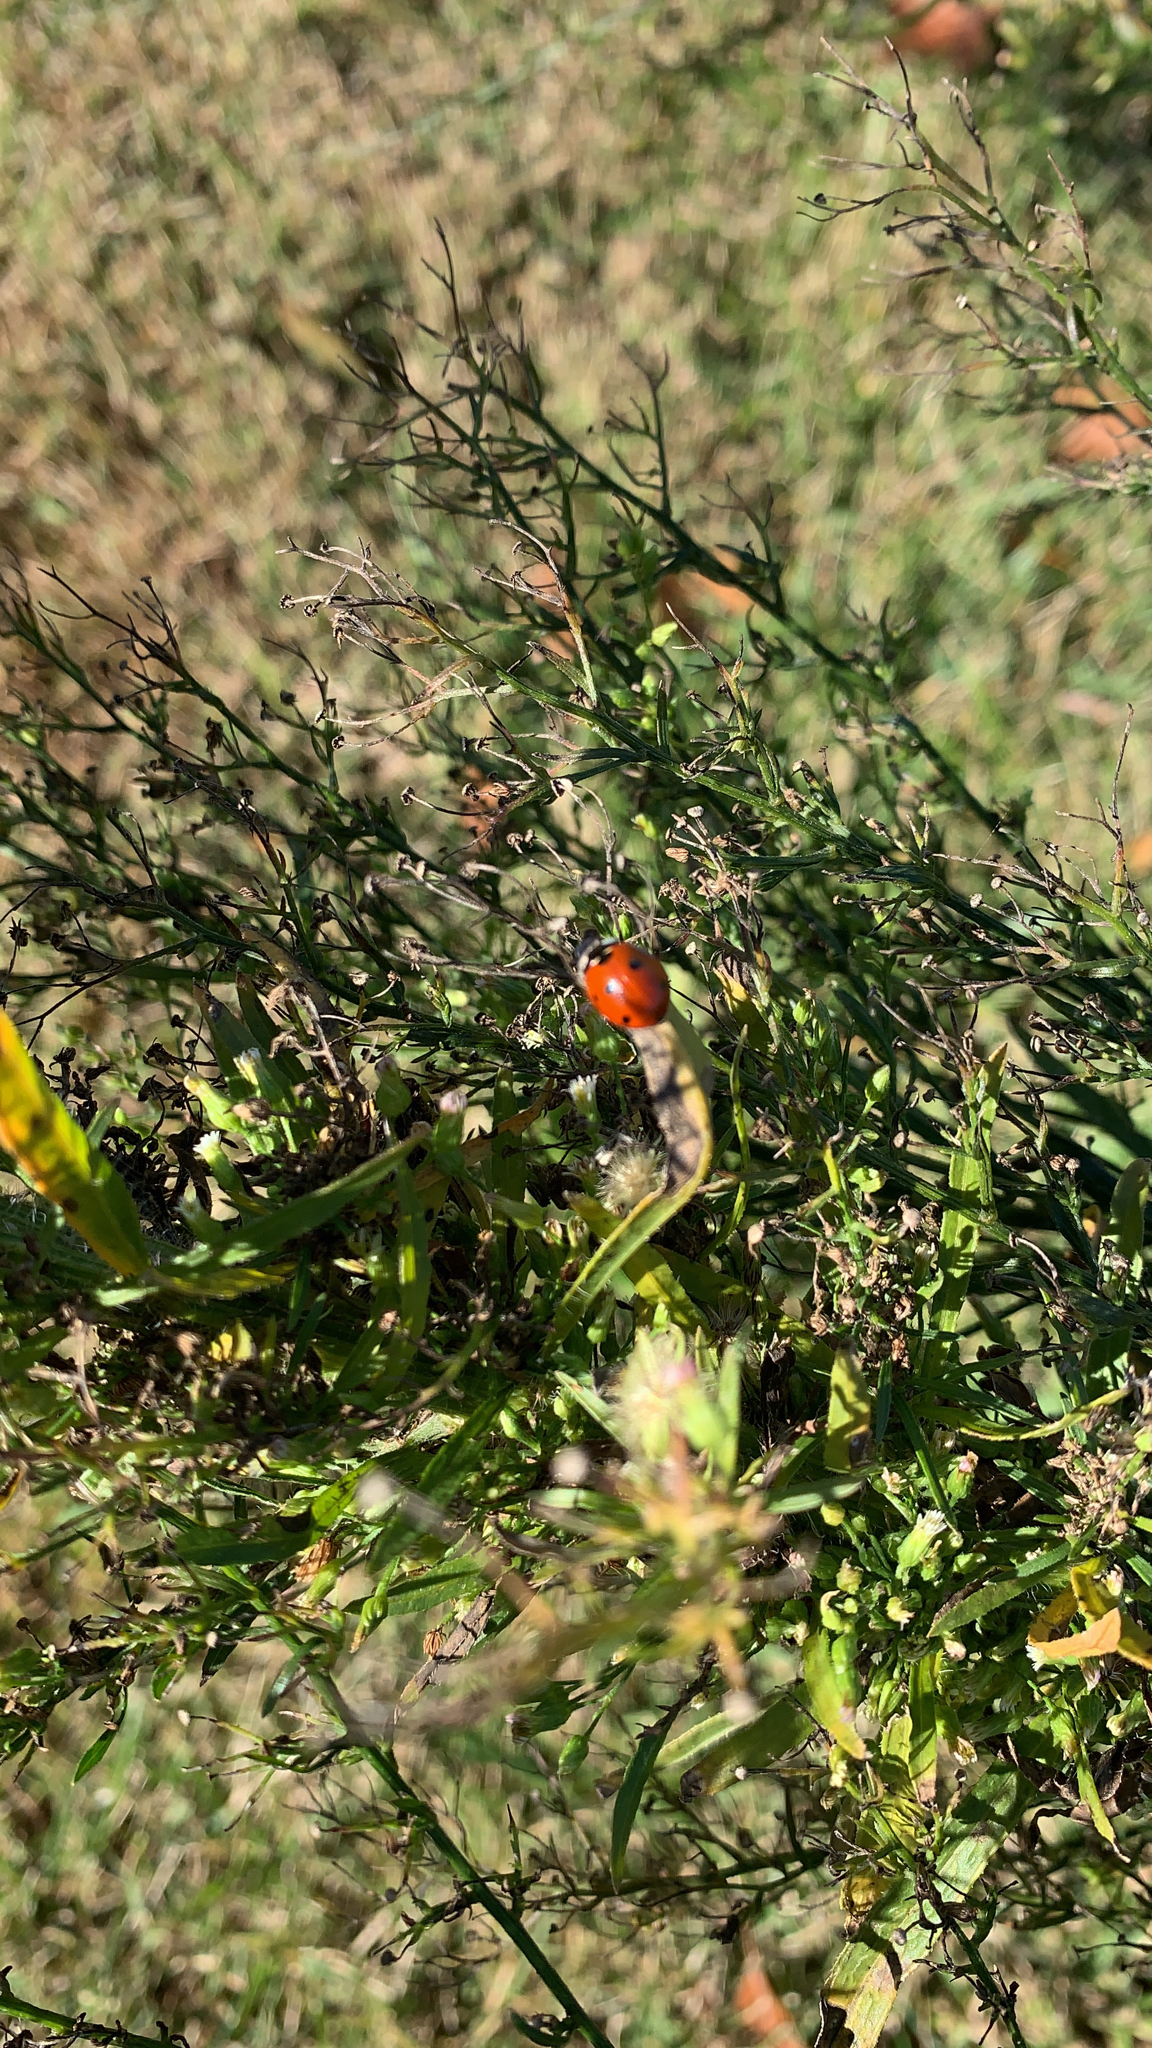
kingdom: Animalia
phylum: Arthropoda
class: Insecta
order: Coleoptera
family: Coccinellidae
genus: Coccinella
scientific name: Coccinella septempunctata
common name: Sevenspotted lady beetle
